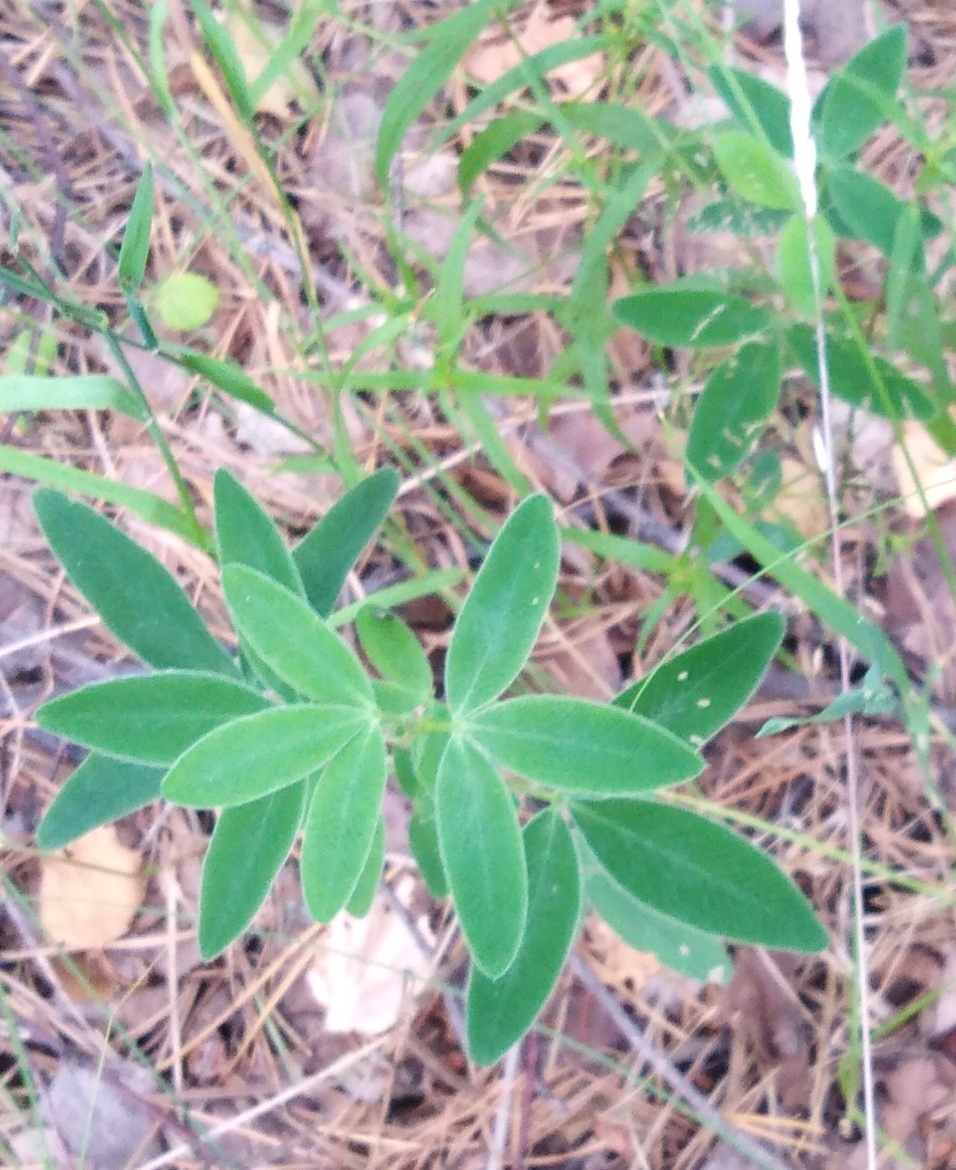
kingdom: Plantae
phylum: Tracheophyta
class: Magnoliopsida
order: Fabales
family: Fabaceae
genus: Trifolium
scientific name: Trifolium medium
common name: Zigzag clover
